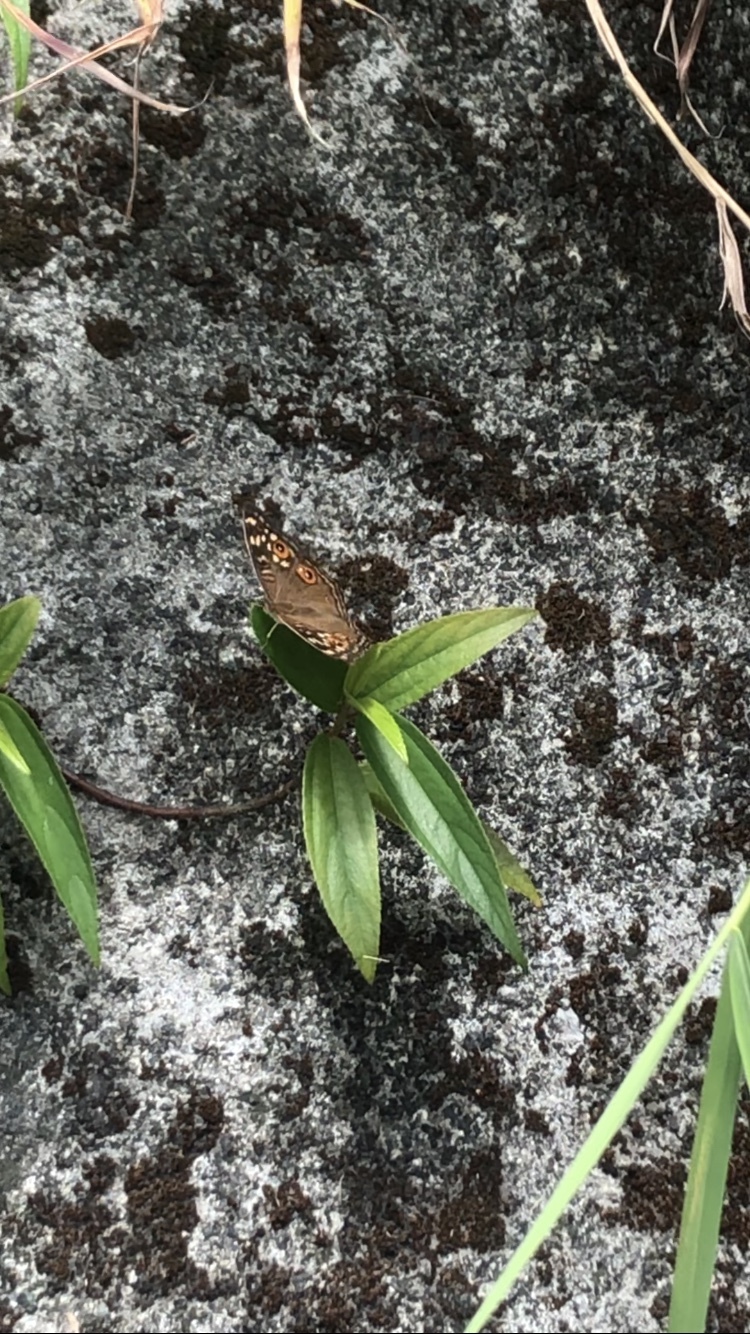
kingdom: Animalia
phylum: Arthropoda
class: Insecta
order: Lepidoptera
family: Nymphalidae
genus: Junonia
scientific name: Junonia lemonias
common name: Lemon pansy
